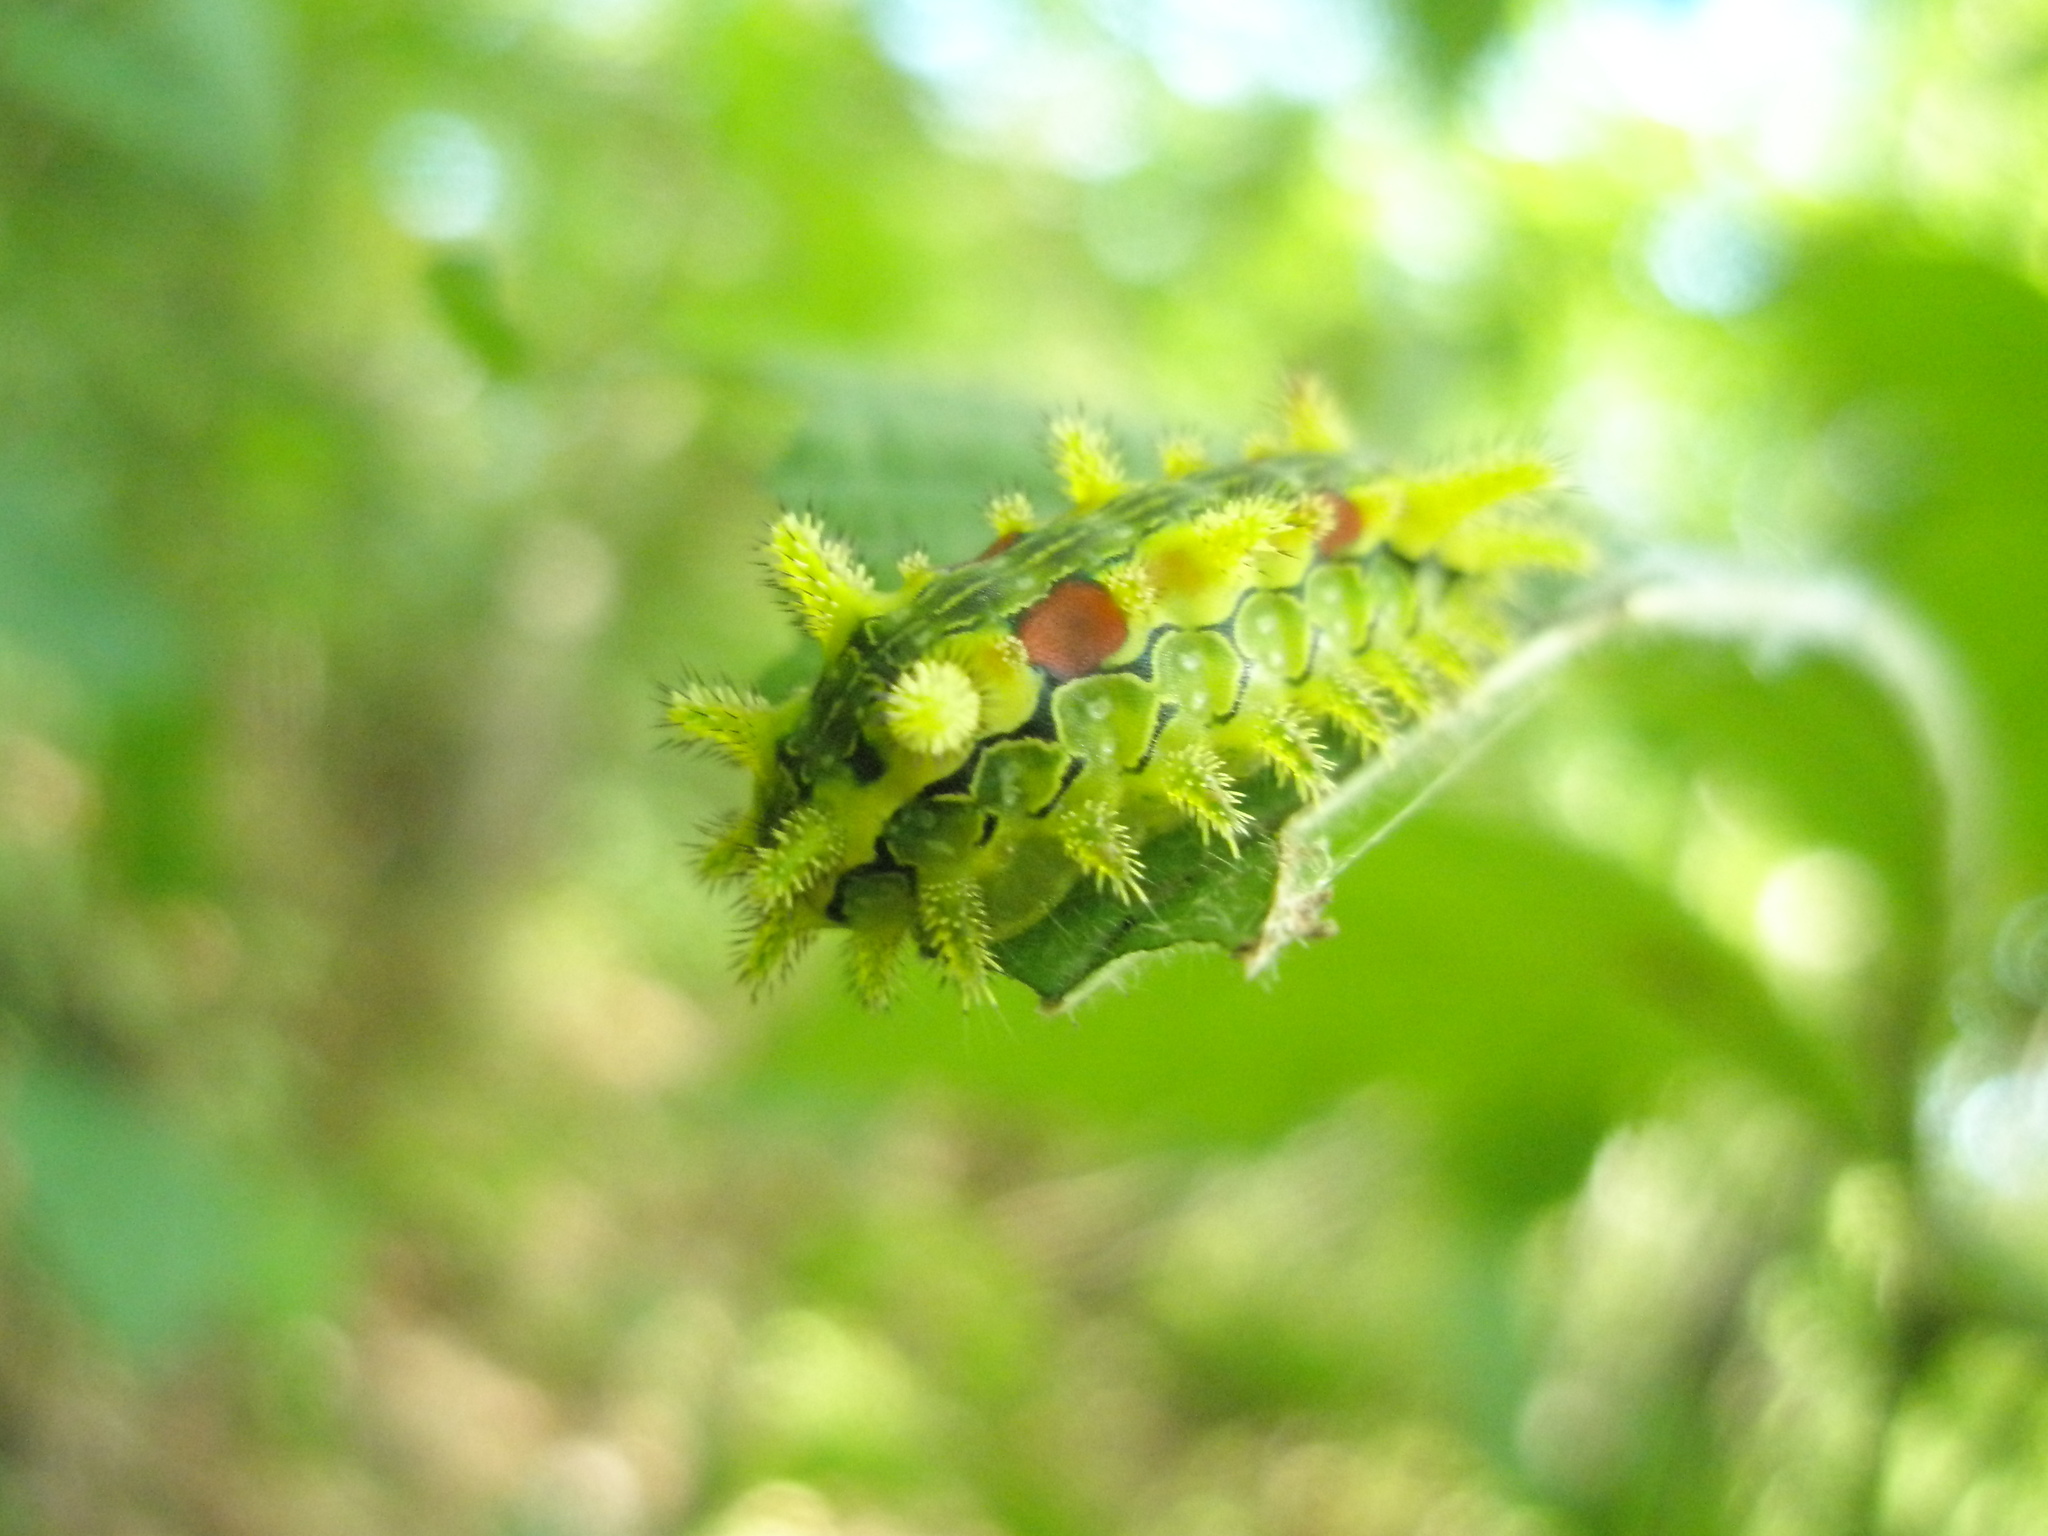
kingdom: Animalia
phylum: Arthropoda
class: Insecta
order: Lepidoptera
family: Limacodidae
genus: Euclea
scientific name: Euclea delphinii
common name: Spiny oak-slug moth
